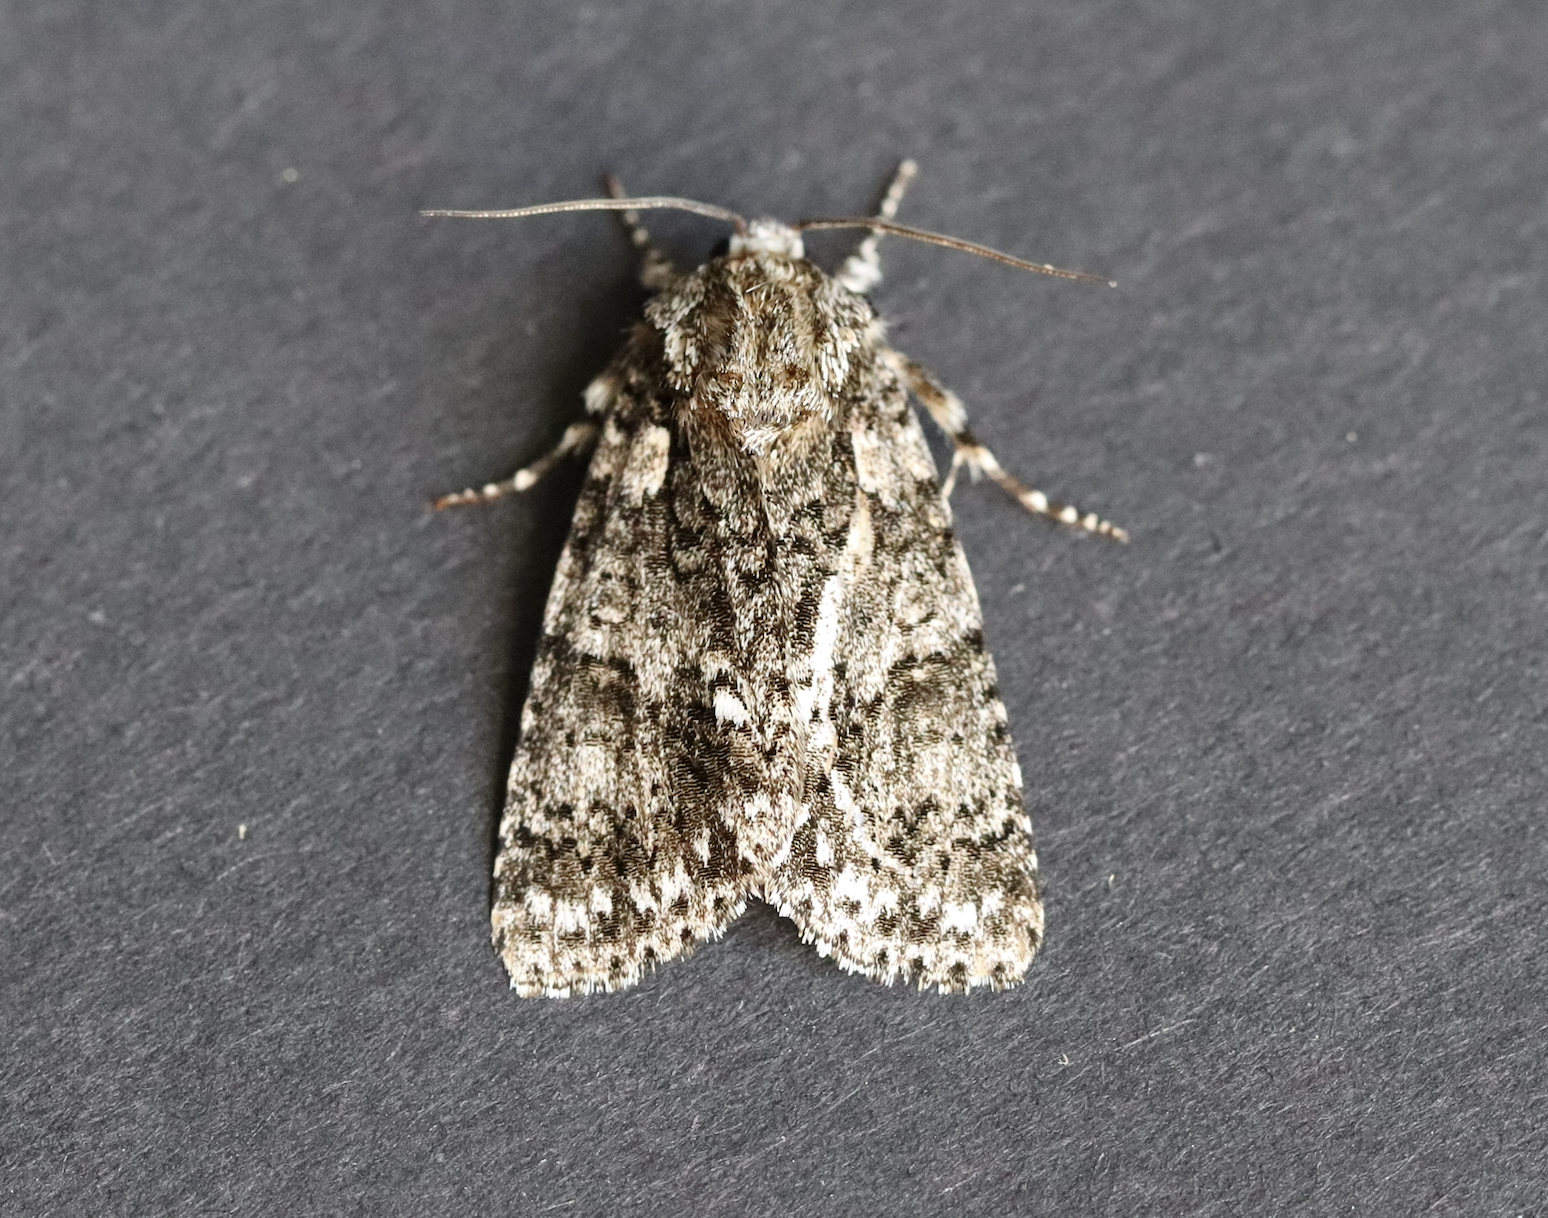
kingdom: Animalia
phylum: Arthropoda
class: Insecta
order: Lepidoptera
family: Noctuidae
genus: Acronicta
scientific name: Acronicta rumicis
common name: Knot grass
